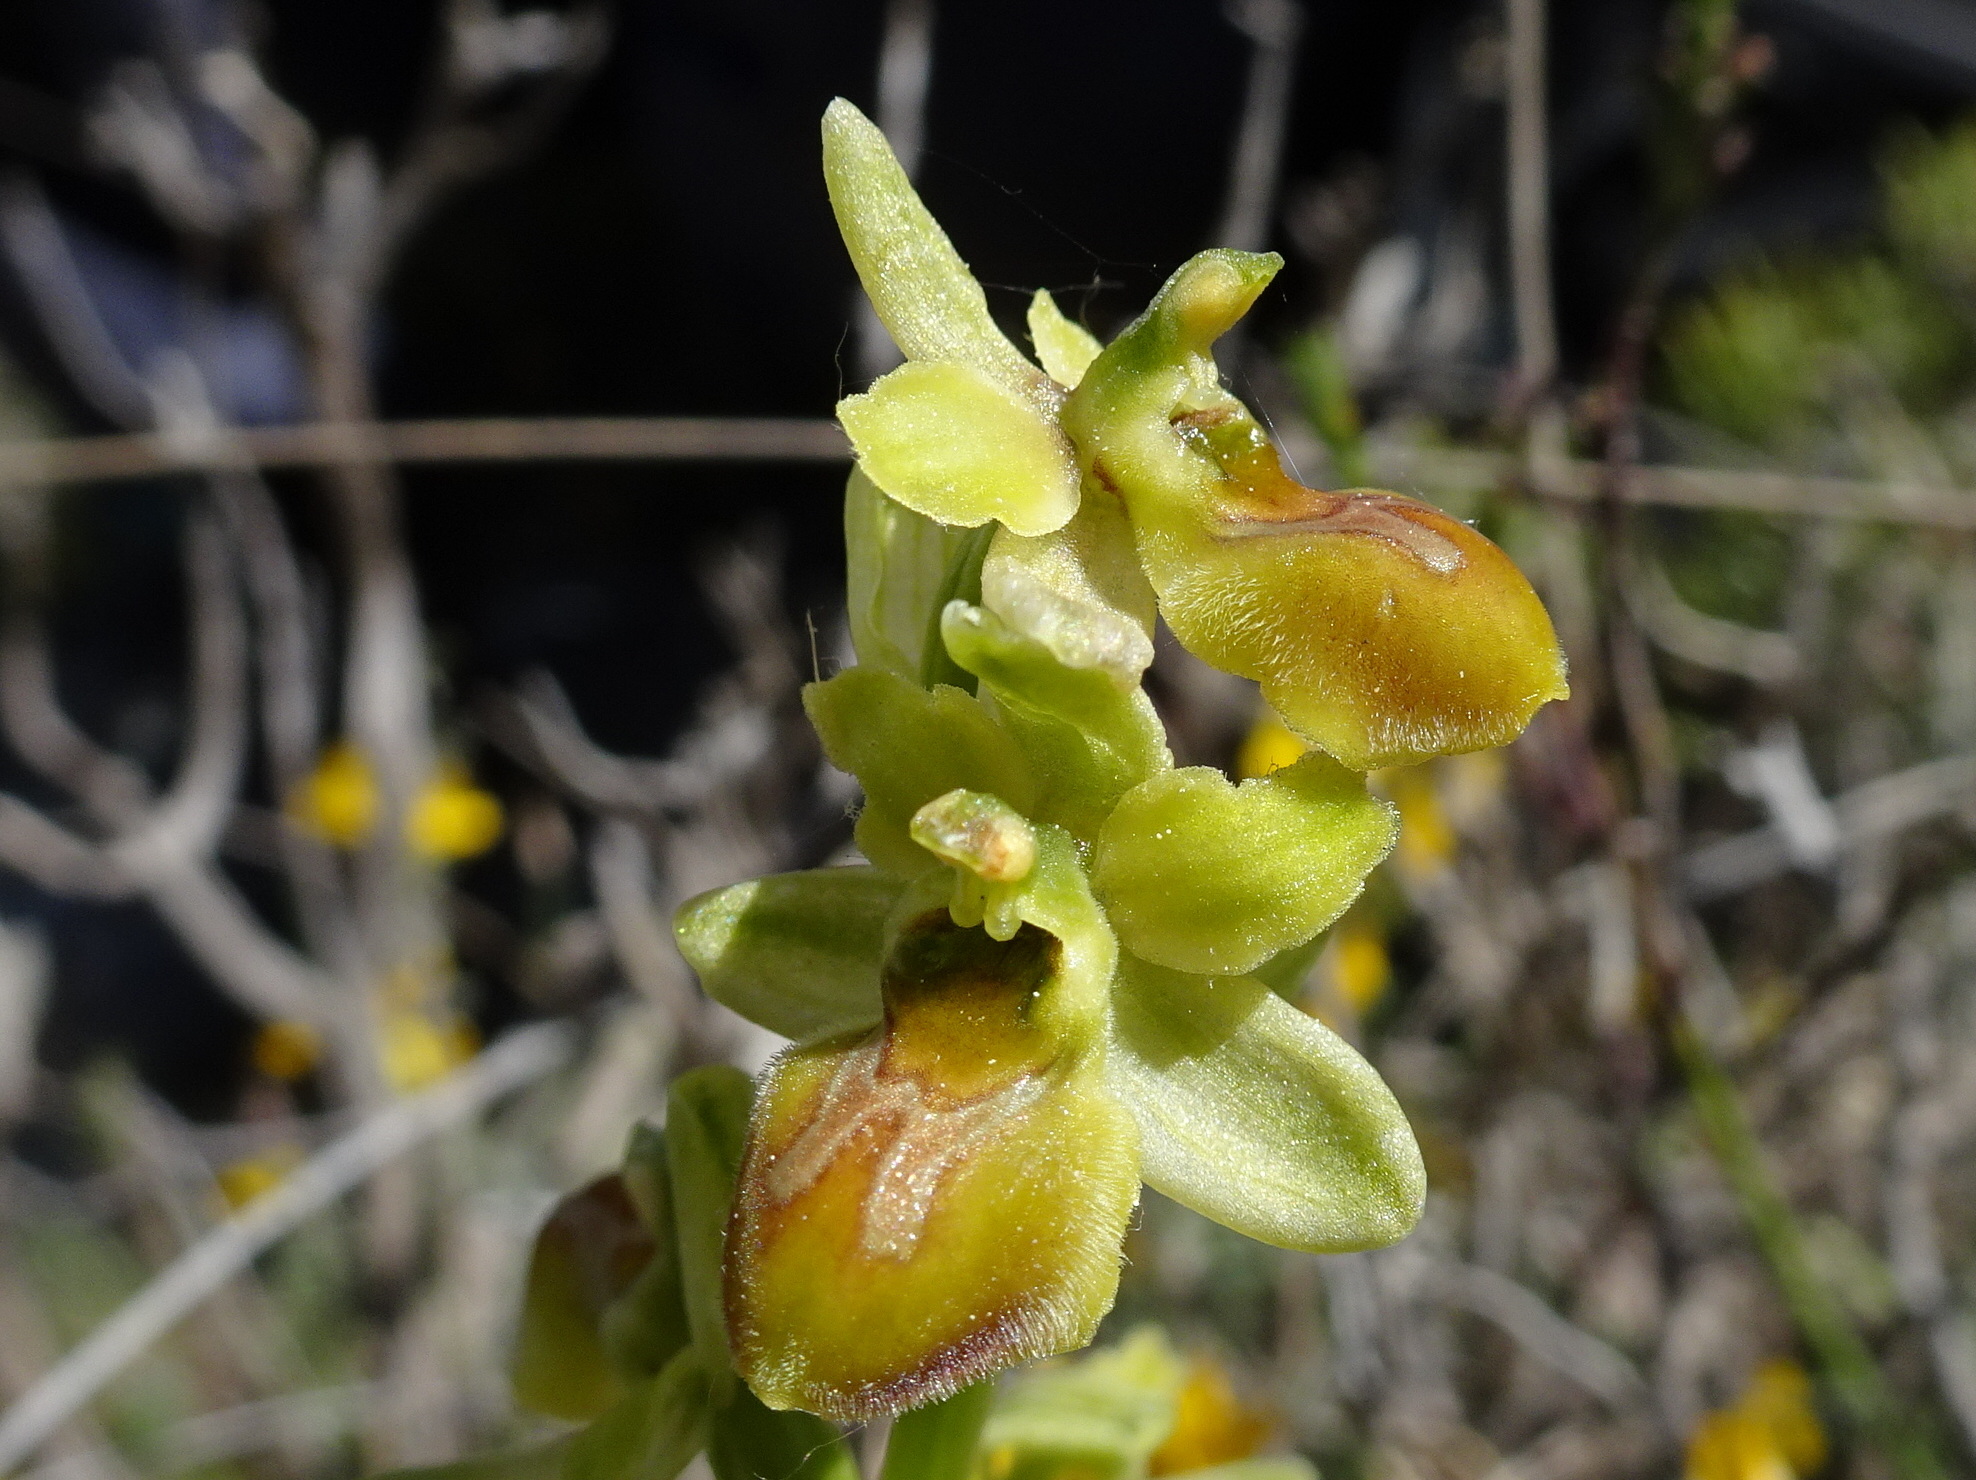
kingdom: Plantae
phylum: Tracheophyta
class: Liliopsida
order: Asparagales
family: Orchidaceae
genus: Ophrys
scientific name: Ophrys sphegodes
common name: Early spider-orchid
